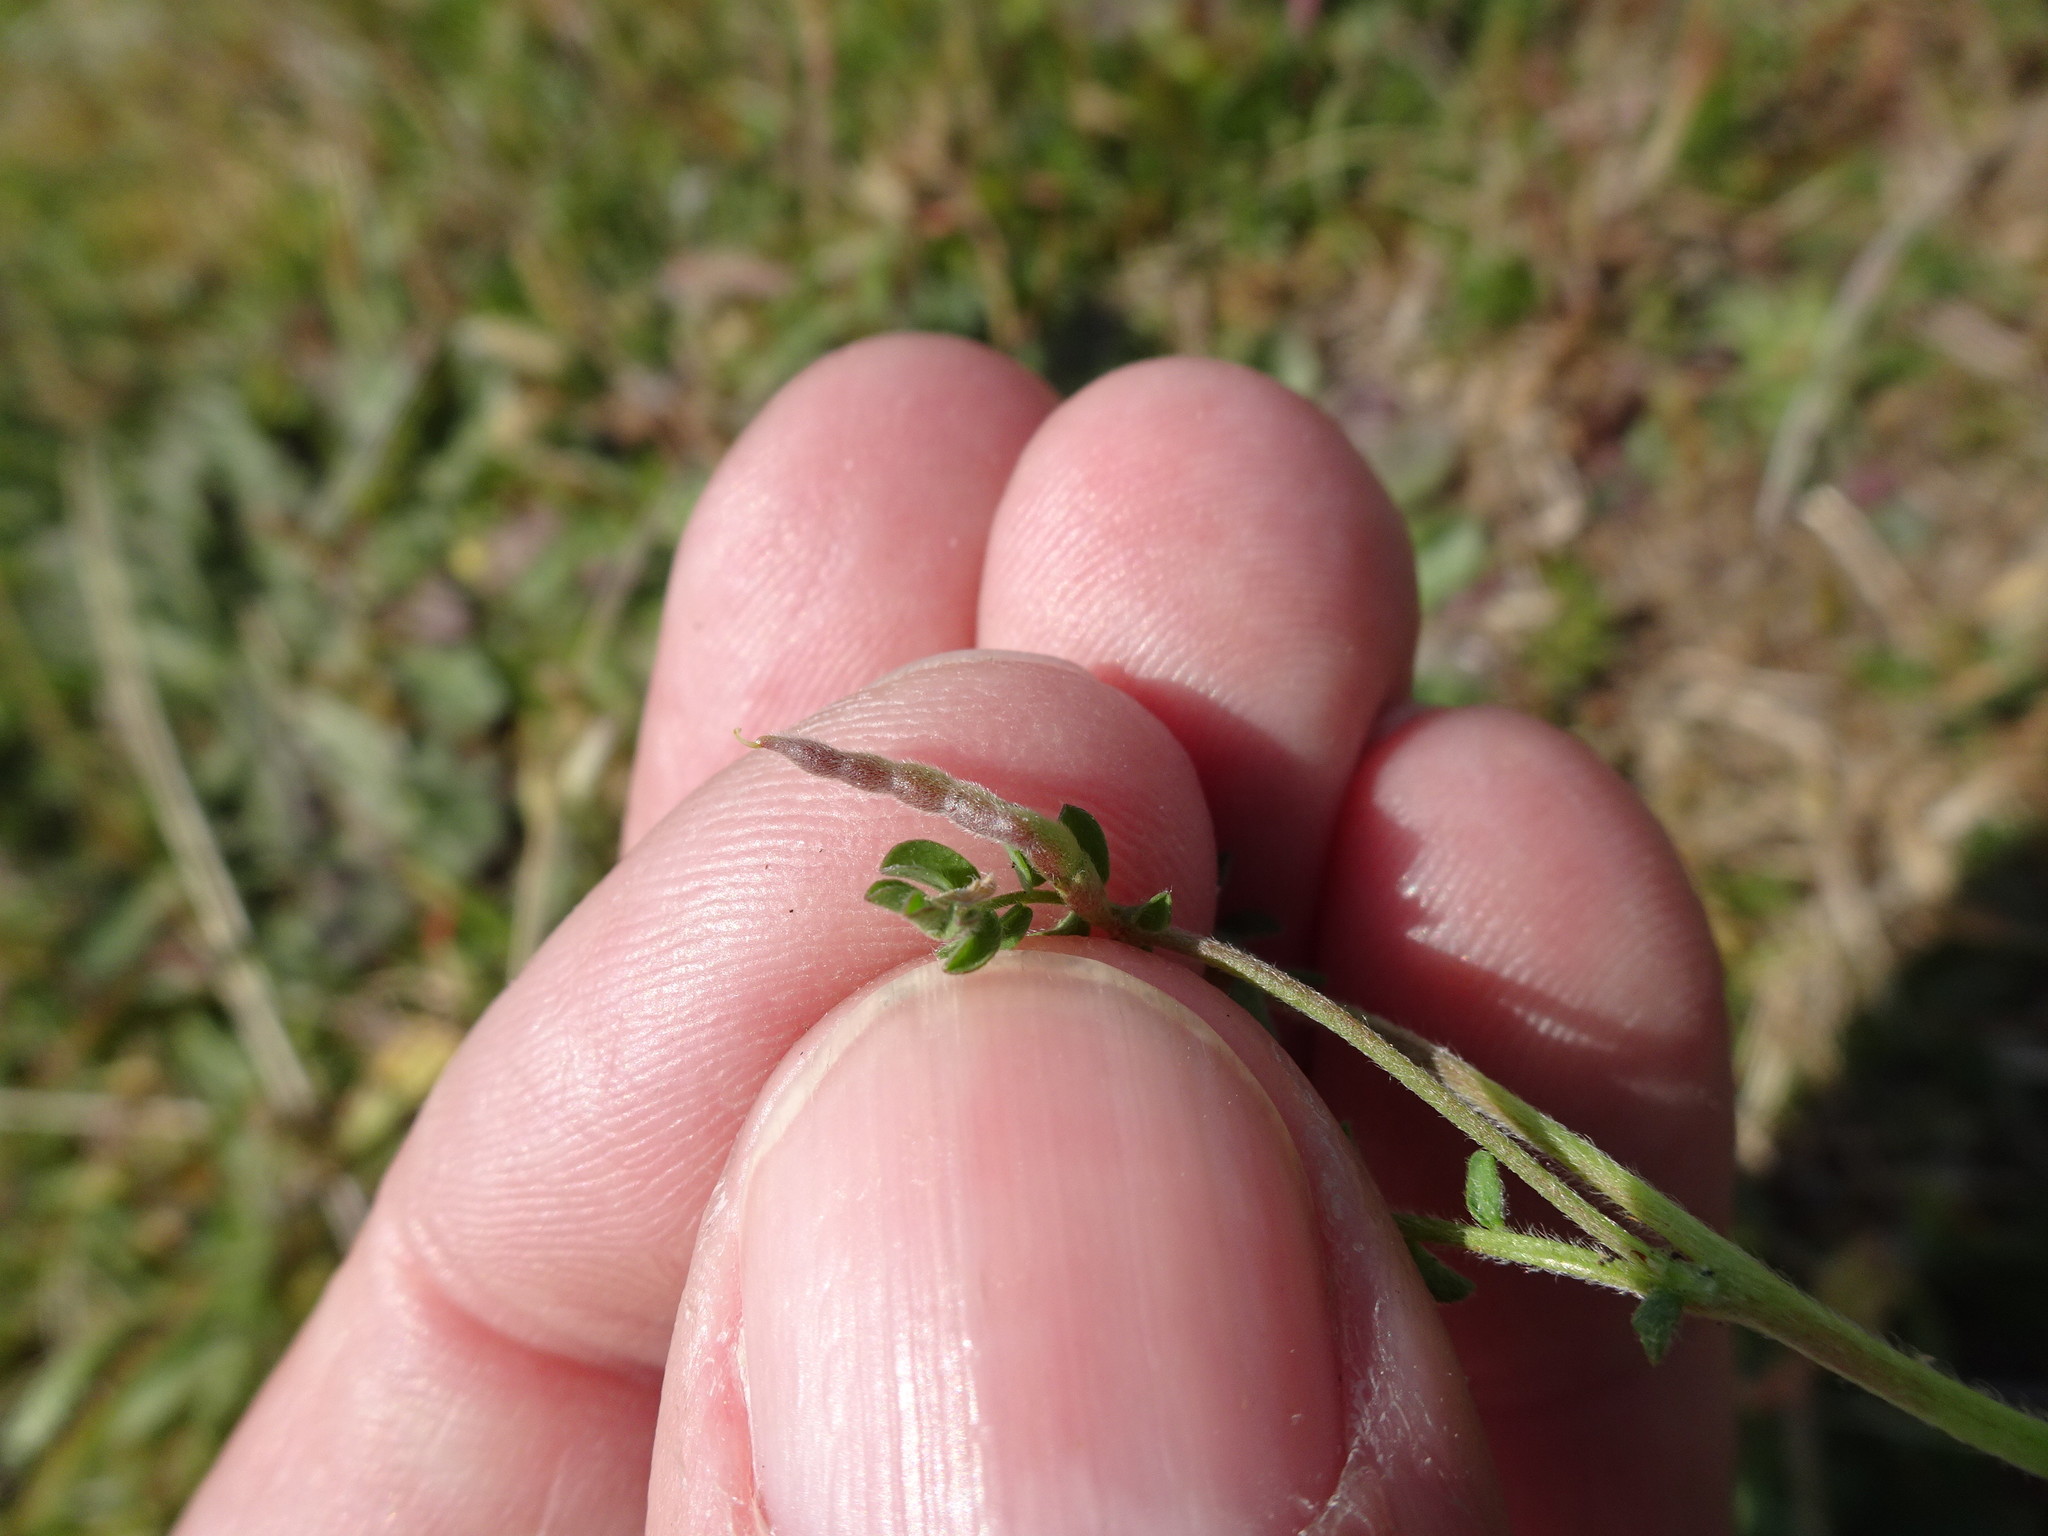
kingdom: Plantae
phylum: Tracheophyta
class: Magnoliopsida
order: Fabales
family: Fabaceae
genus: Ornithopus
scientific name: Ornithopus perpusillus
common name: Bird's-foot
